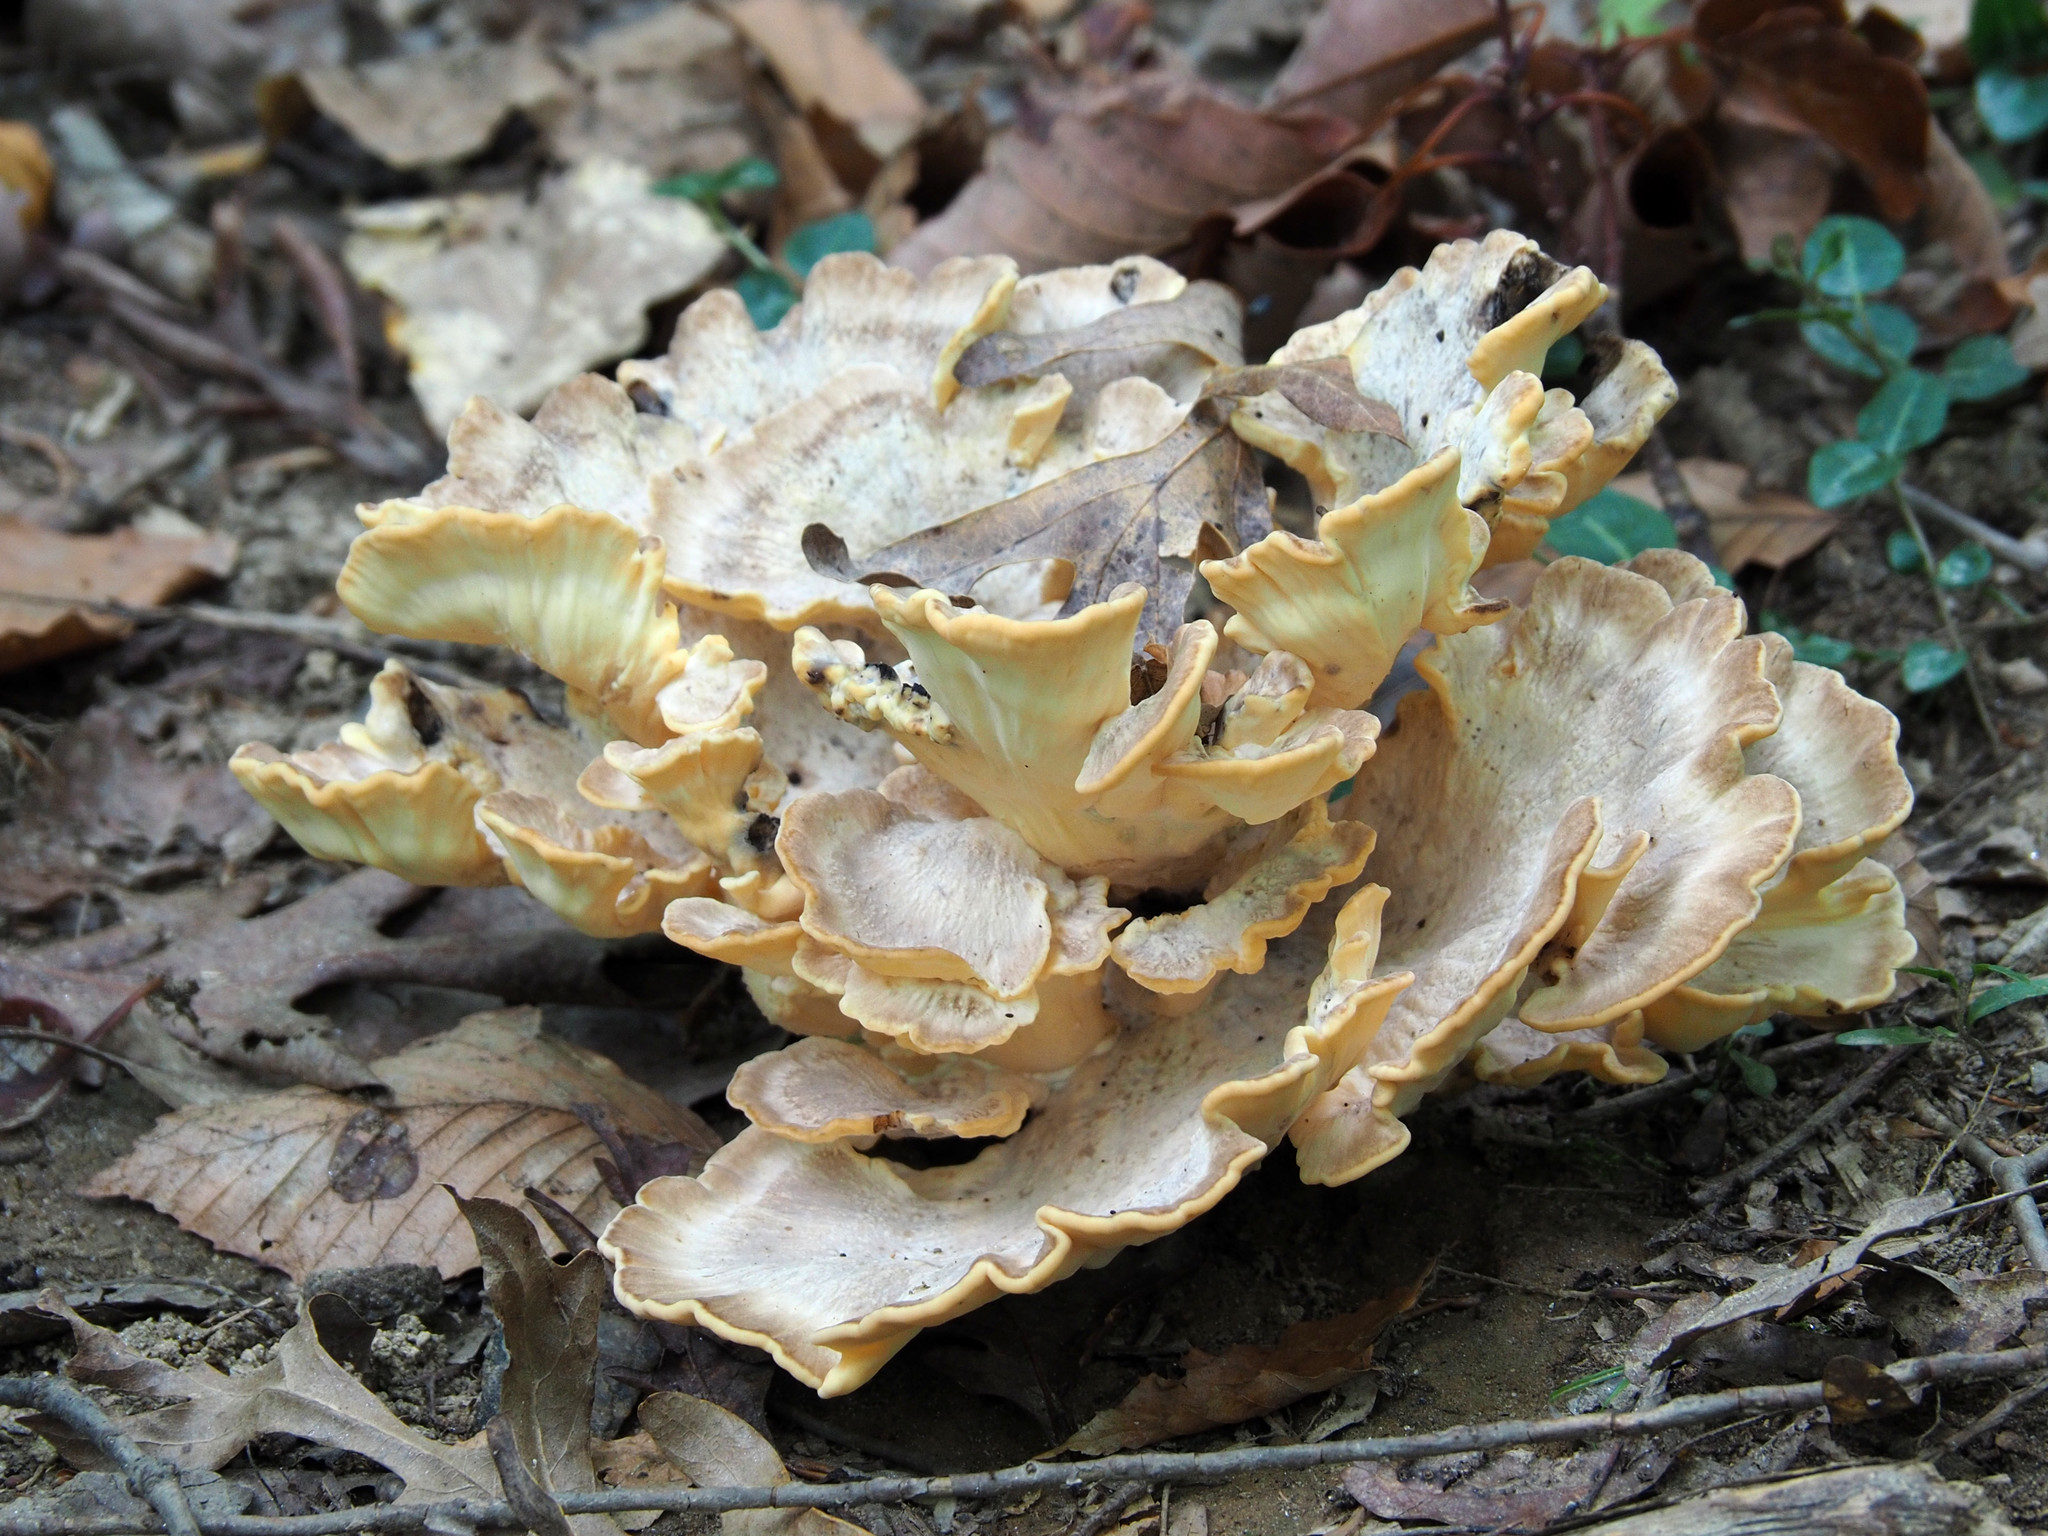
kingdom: Fungi
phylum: Basidiomycota
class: Agaricomycetes
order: Polyporales
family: Meripilaceae
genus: Meripilus
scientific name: Meripilus sumstinei
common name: Black-staining polypore
